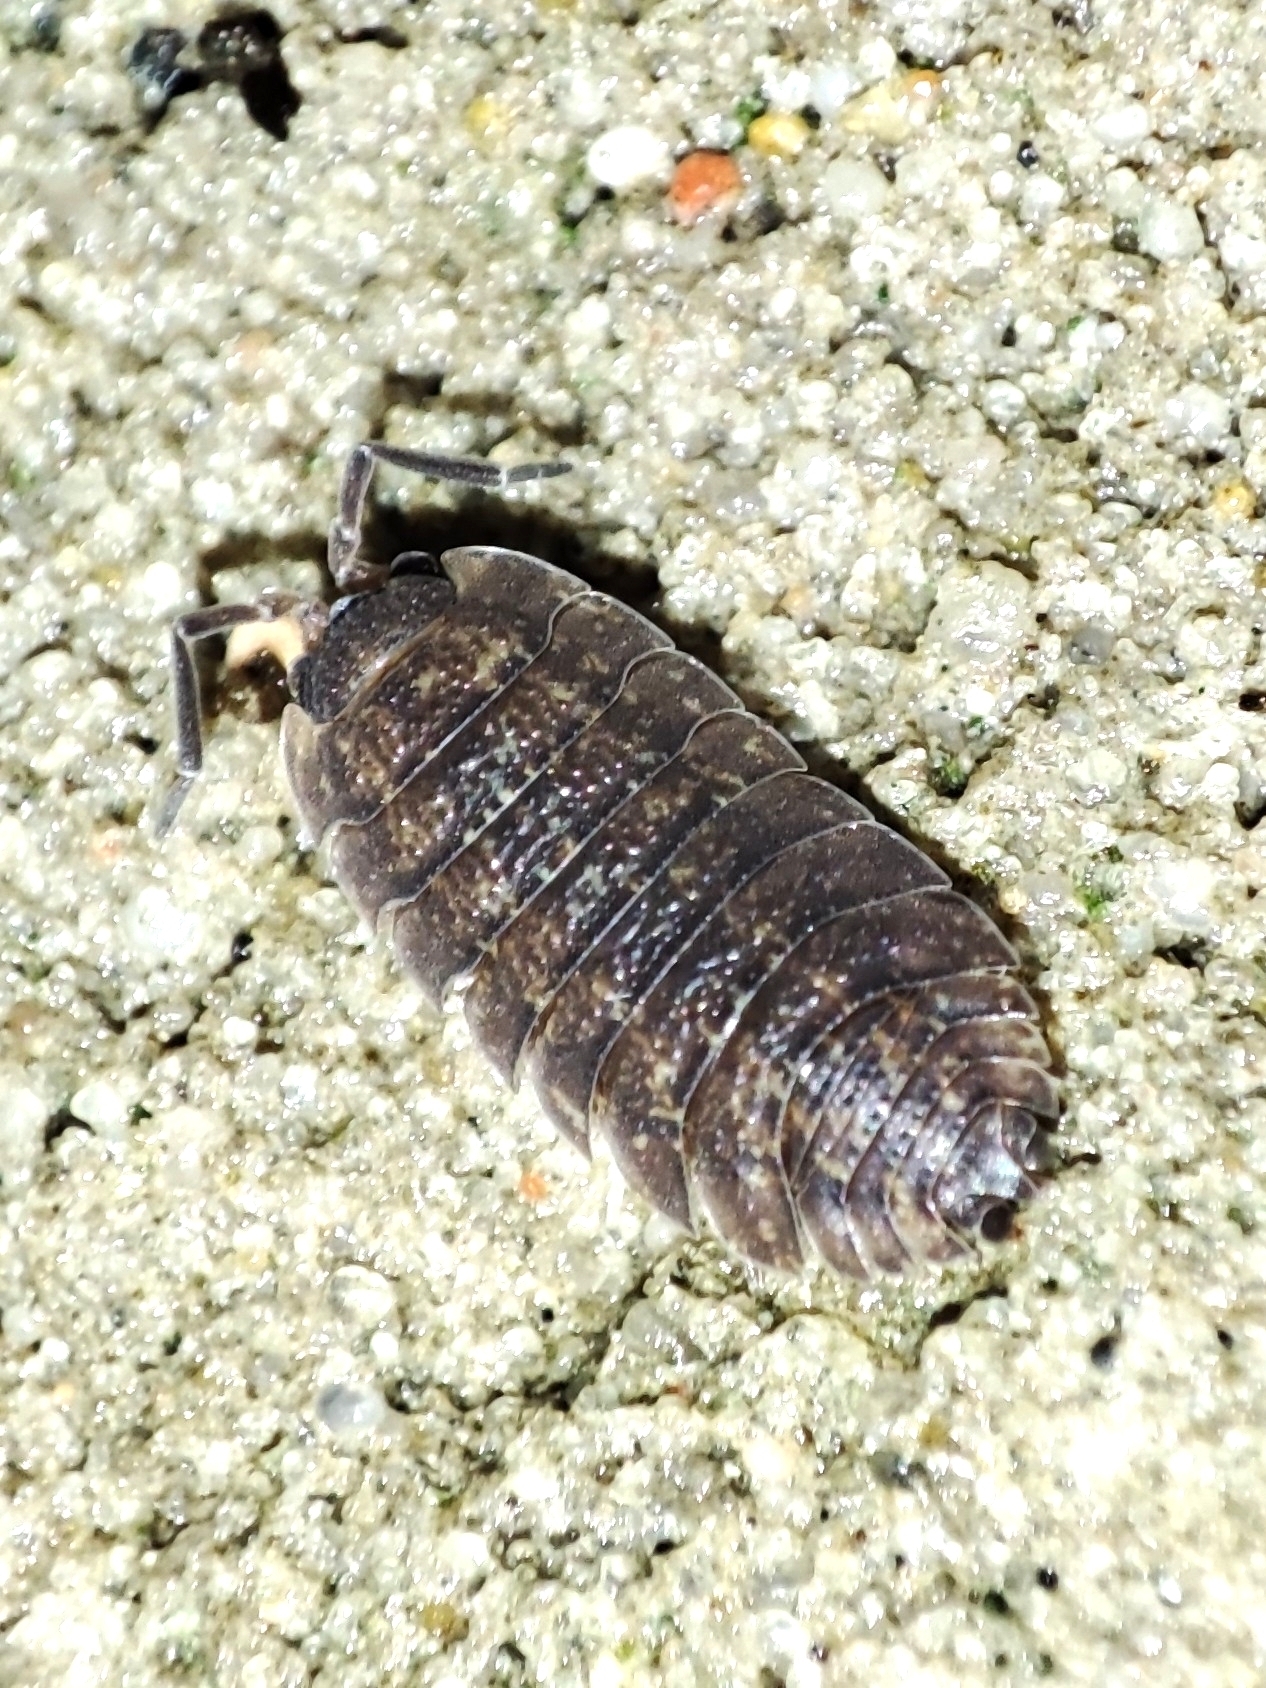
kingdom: Animalia
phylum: Arthropoda
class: Malacostraca
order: Isopoda
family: Porcellionidae
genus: Porcellio
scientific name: Porcellio scaber
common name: Common rough woodlouse
